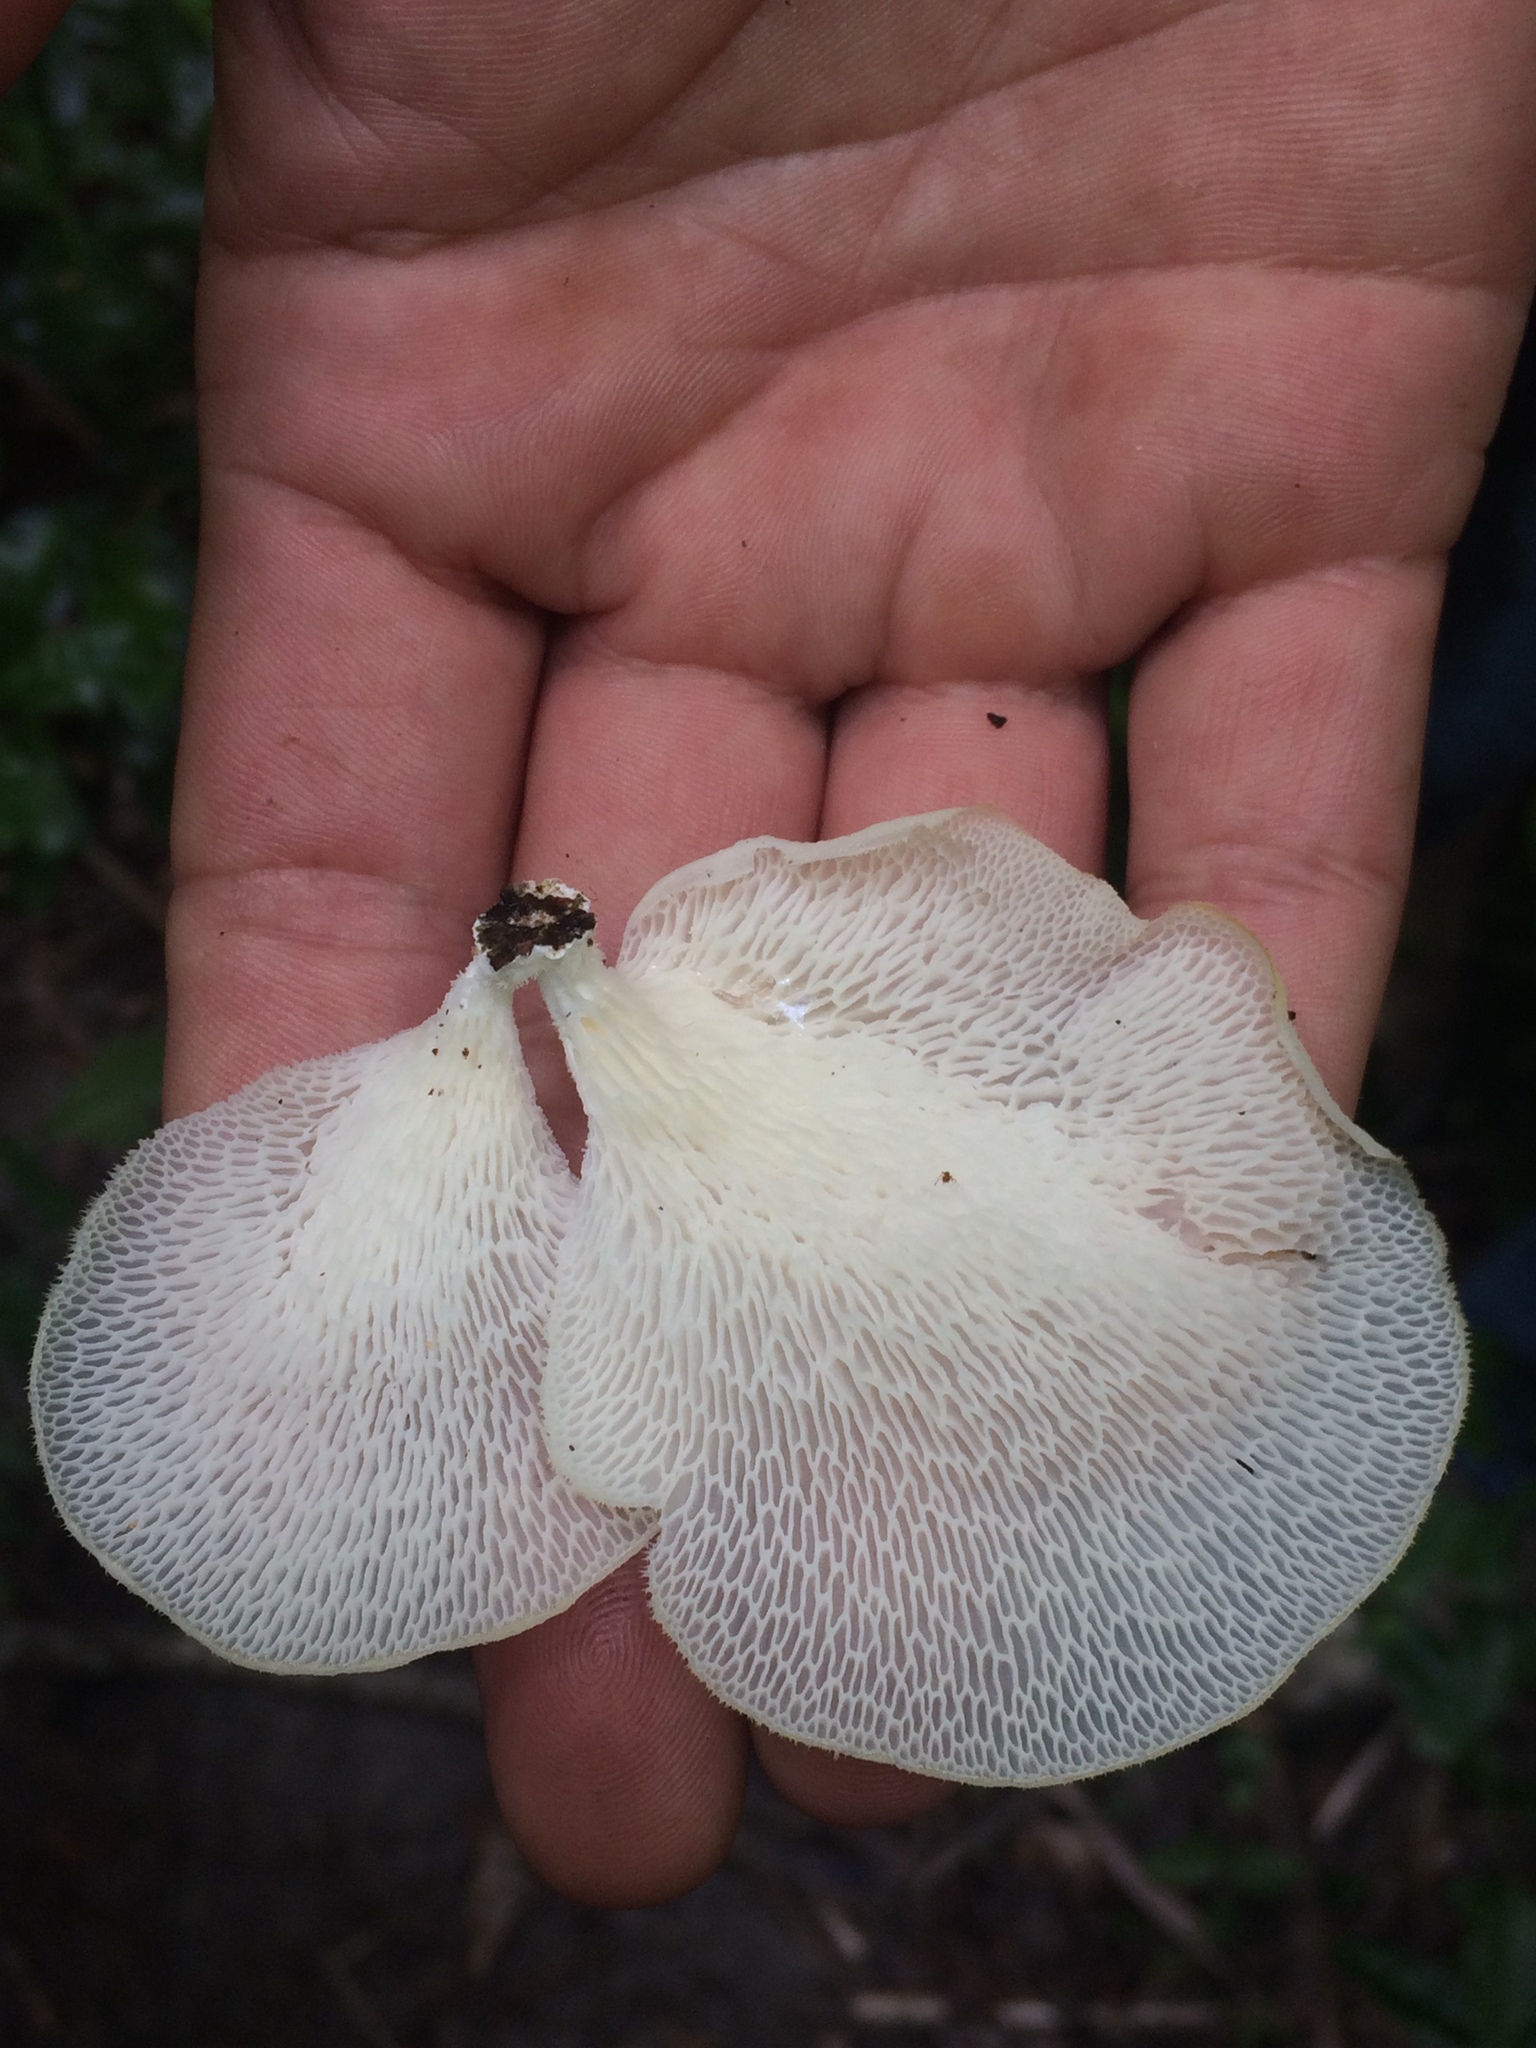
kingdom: Fungi
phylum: Basidiomycota
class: Agaricomycetes
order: Polyporales
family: Polyporaceae
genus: Favolus
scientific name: Favolus tenuiculus
